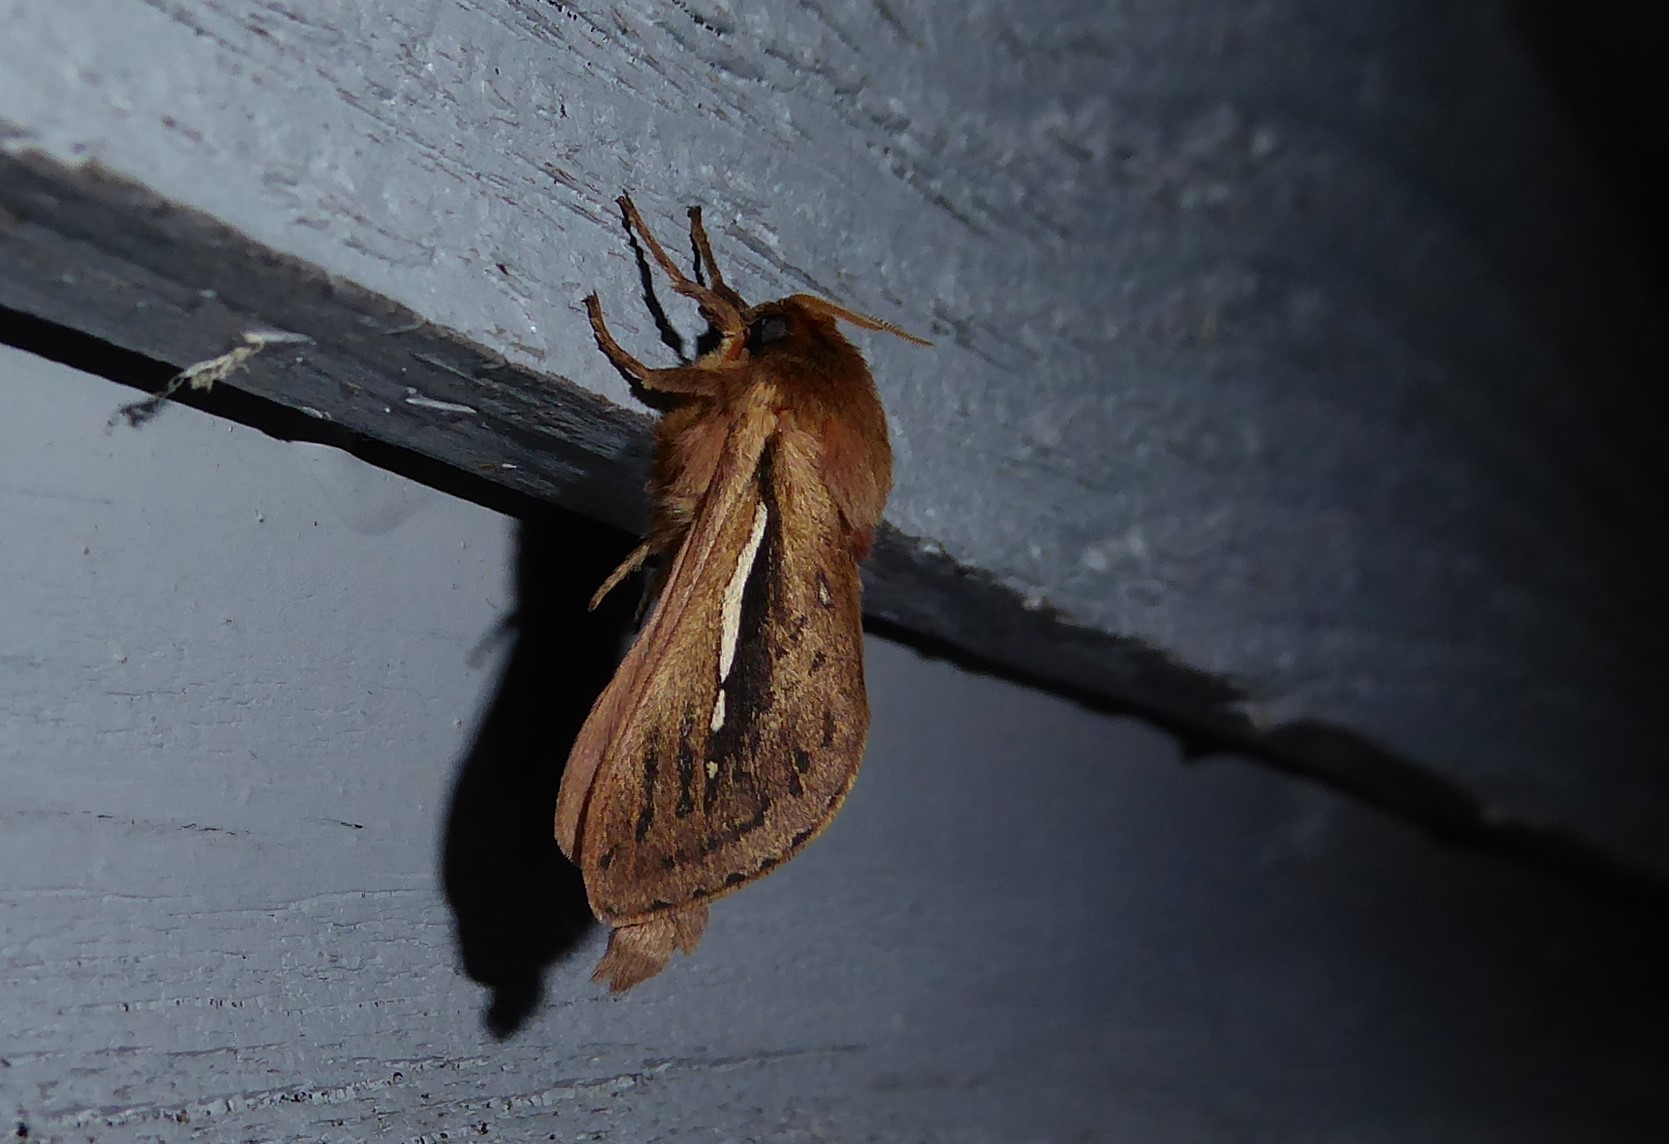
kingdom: Animalia
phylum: Arthropoda
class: Insecta
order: Lepidoptera
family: Hepialidae
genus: Wiseana
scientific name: Wiseana umbraculatus
